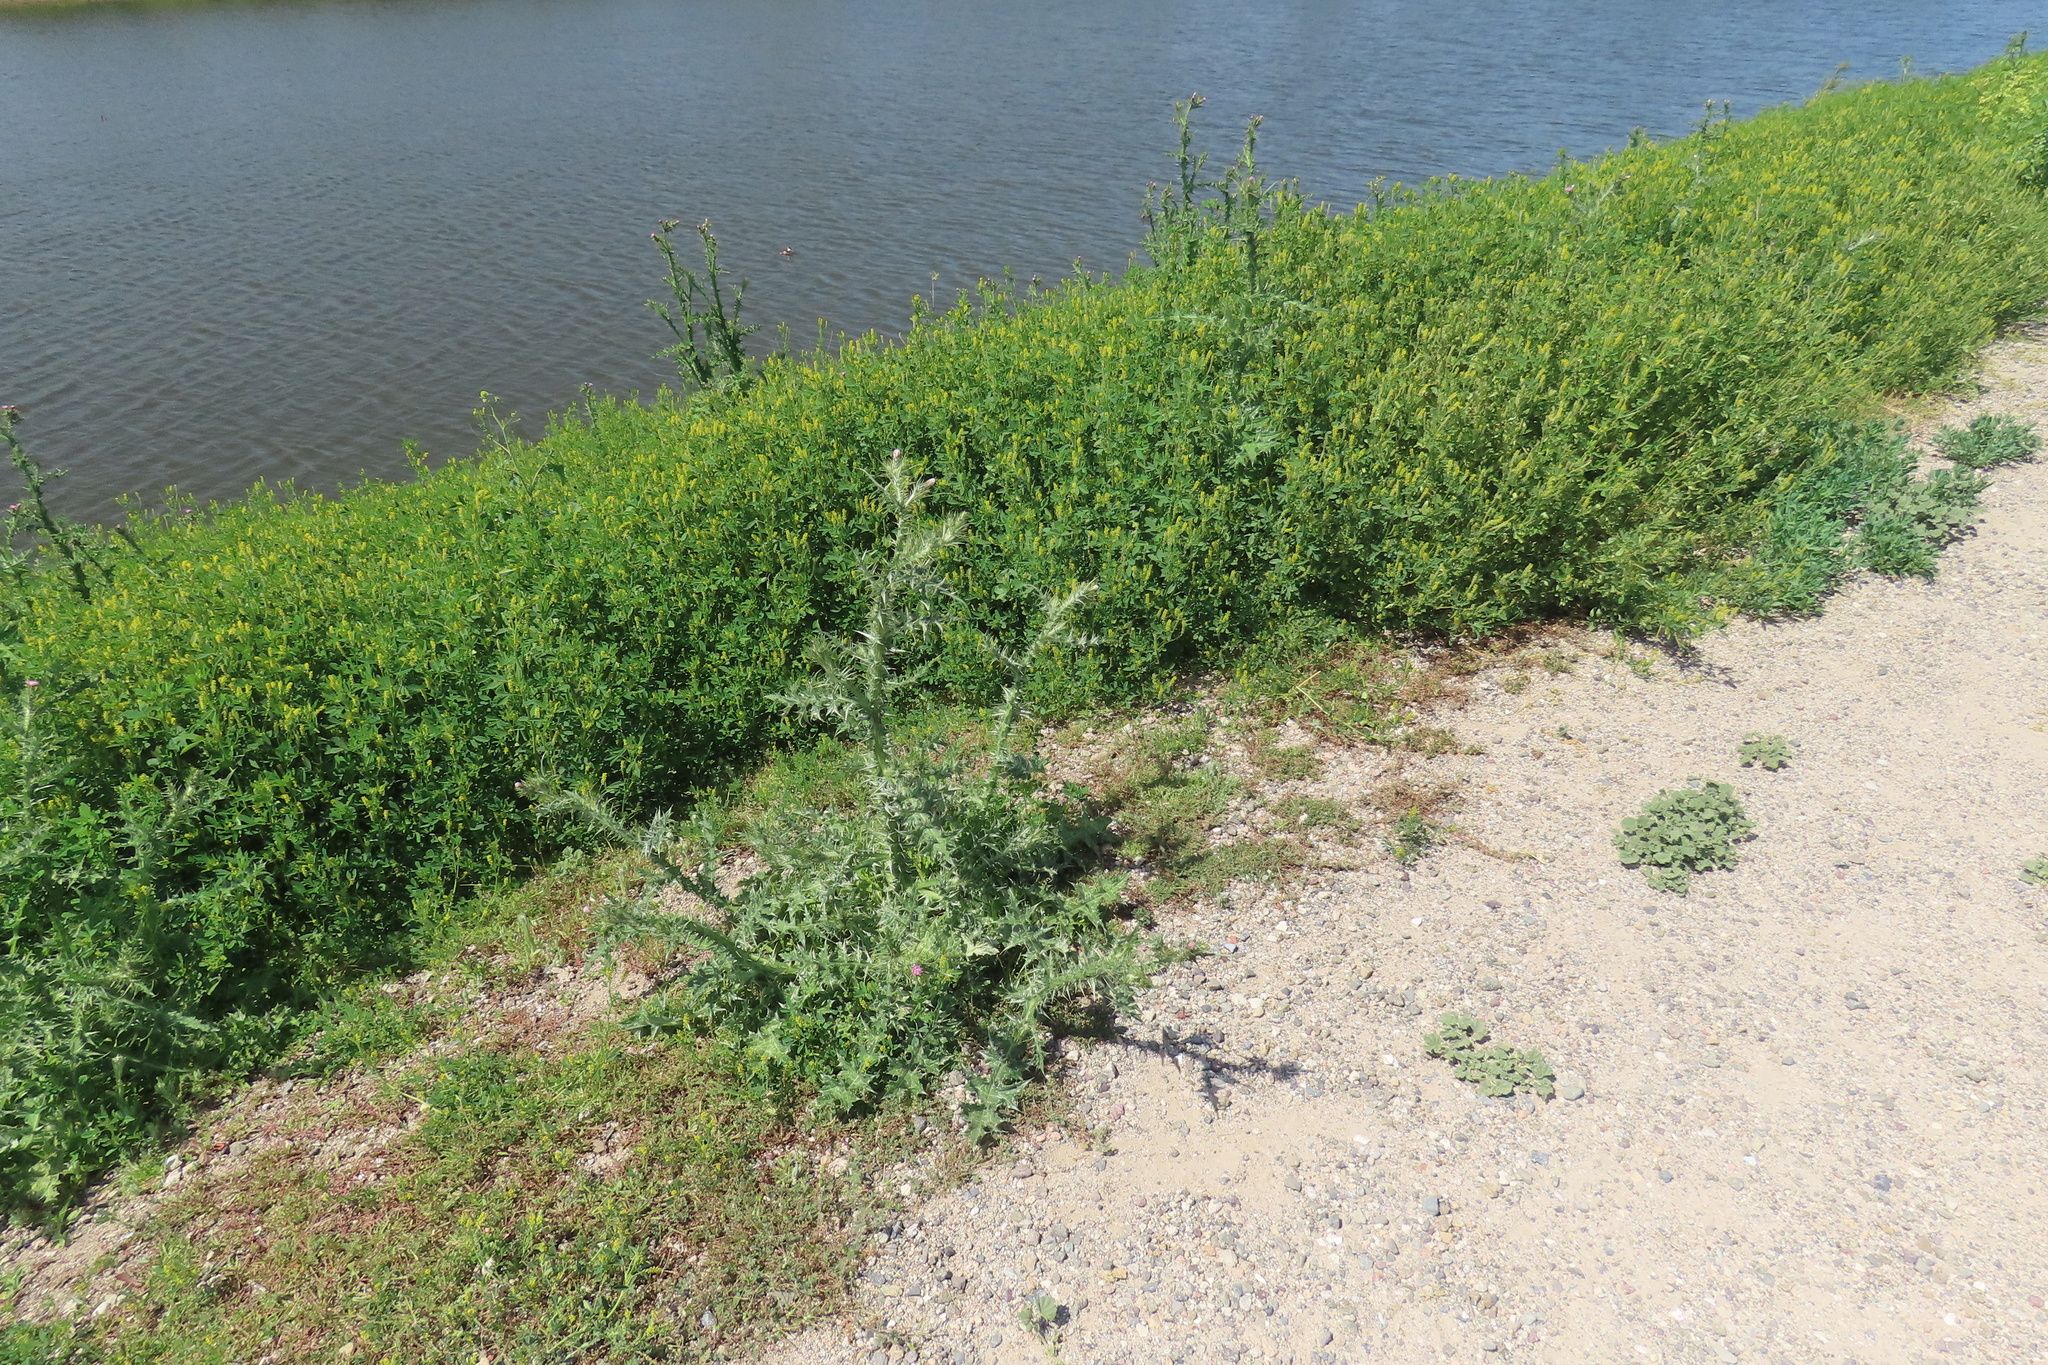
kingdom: Plantae
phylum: Tracheophyta
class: Magnoliopsida
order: Asterales
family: Asteraceae
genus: Carduus
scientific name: Carduus pycnocephalus
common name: Plymouth thistle
